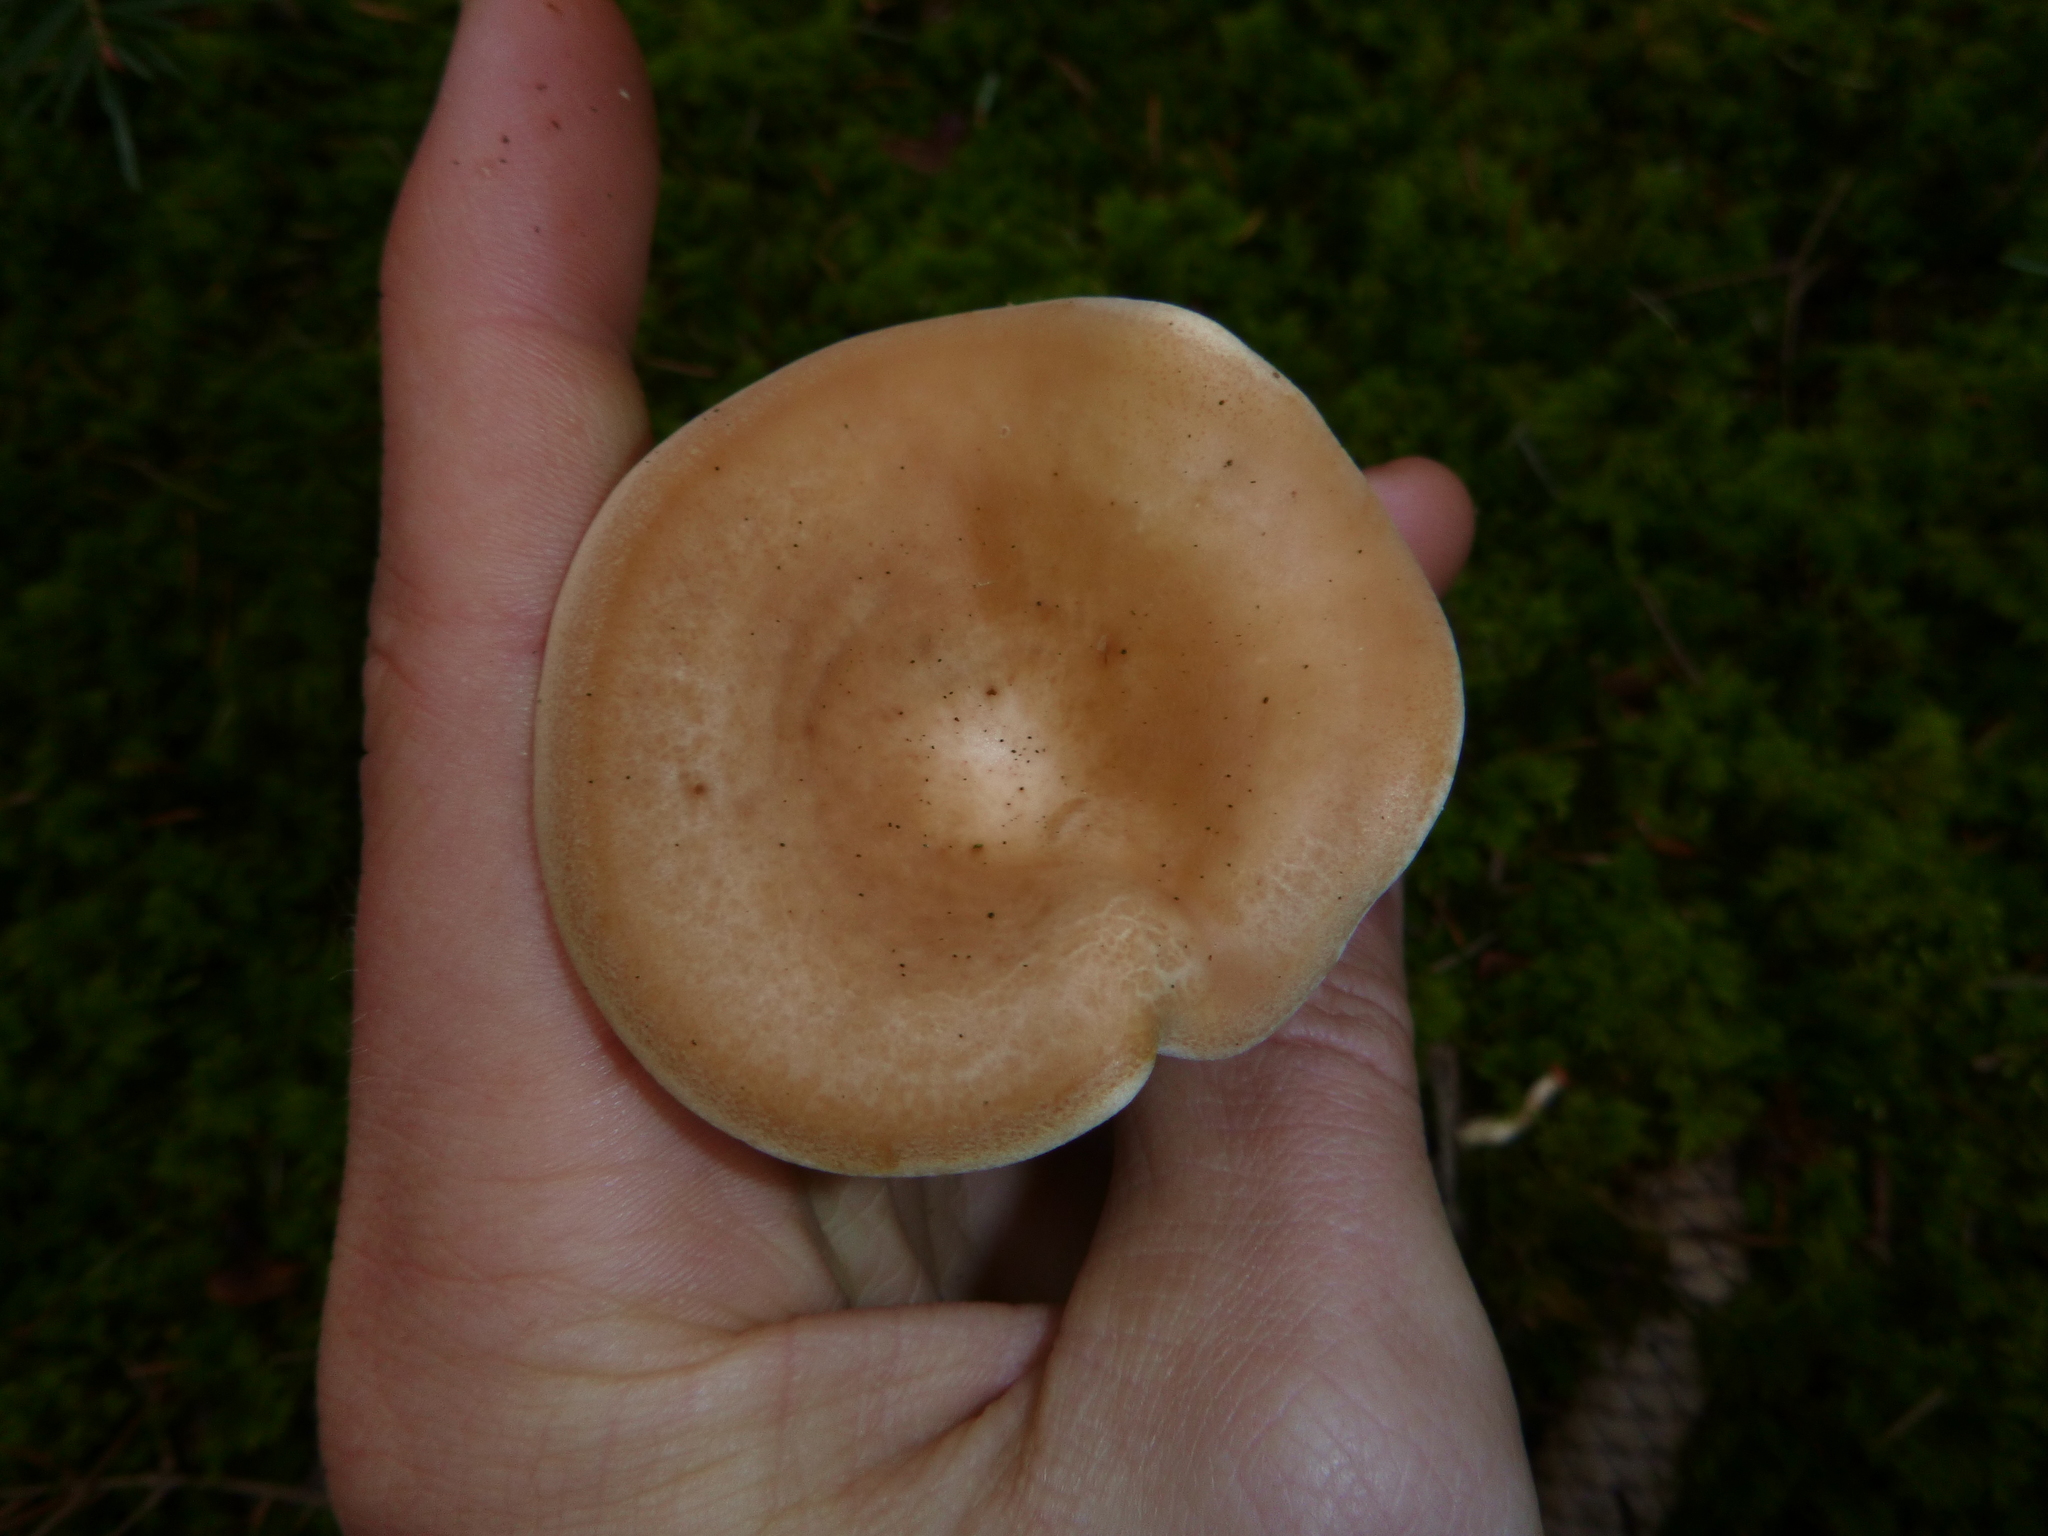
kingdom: Fungi
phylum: Basidiomycota
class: Agaricomycetes
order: Agaricales
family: Tricholomataceae
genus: Paralepista
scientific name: Paralepista flaccida
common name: Tawny funnel cap
